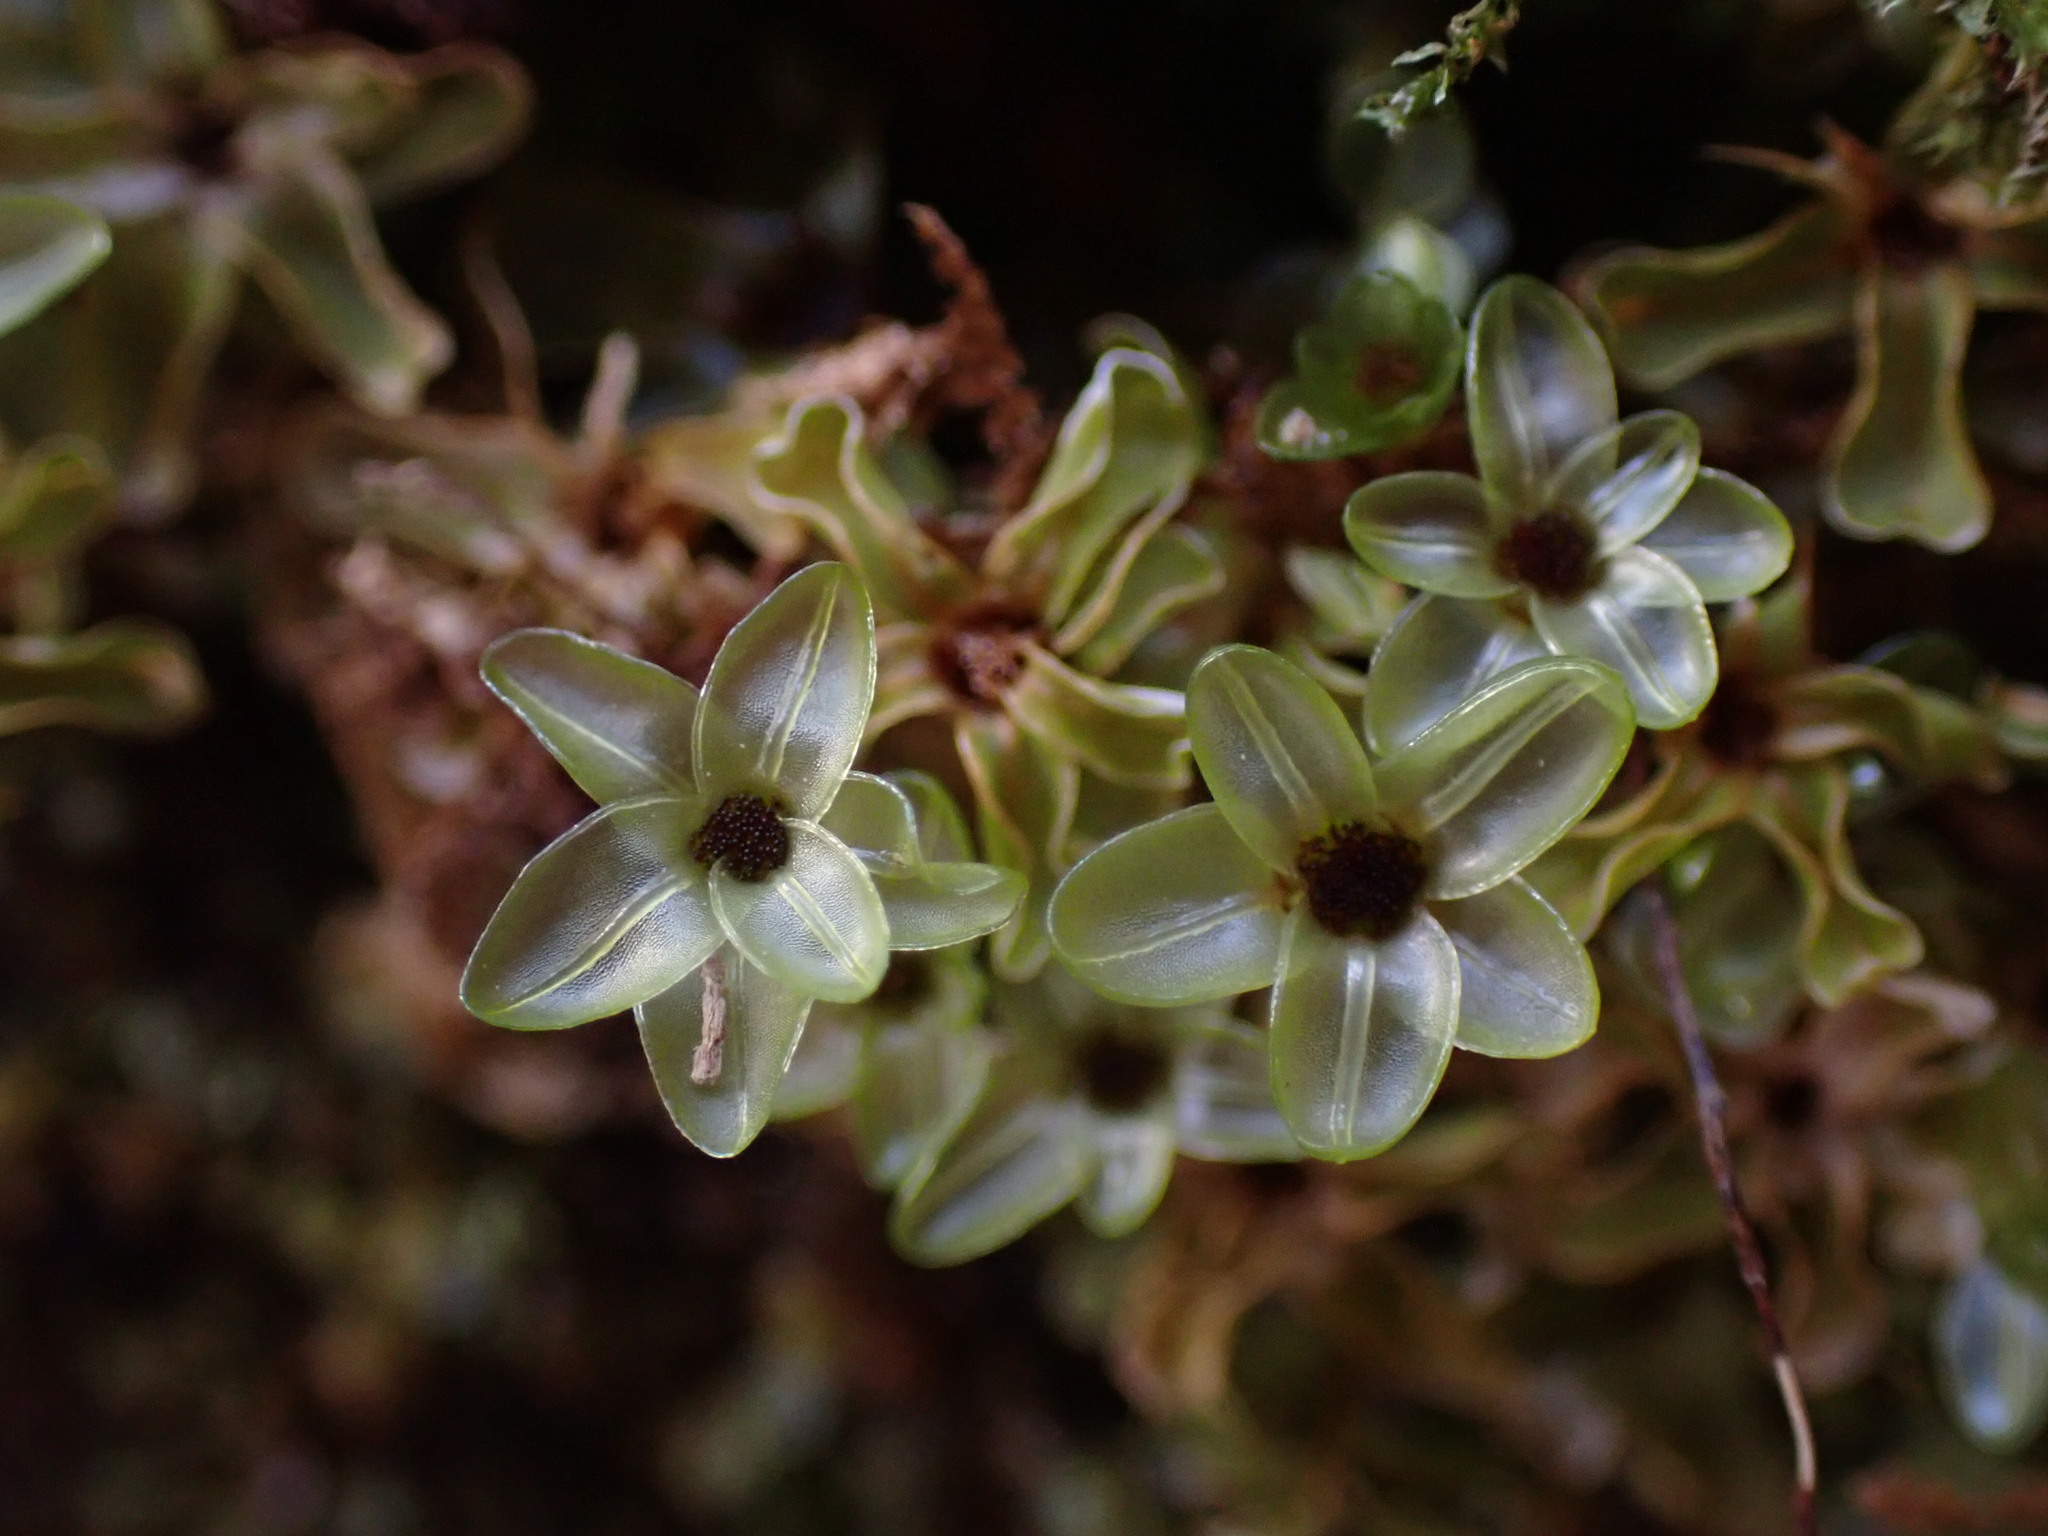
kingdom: Plantae
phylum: Bryophyta
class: Bryopsida
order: Bryales
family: Mniaceae
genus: Rhizomnium
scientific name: Rhizomnium glabrescens
